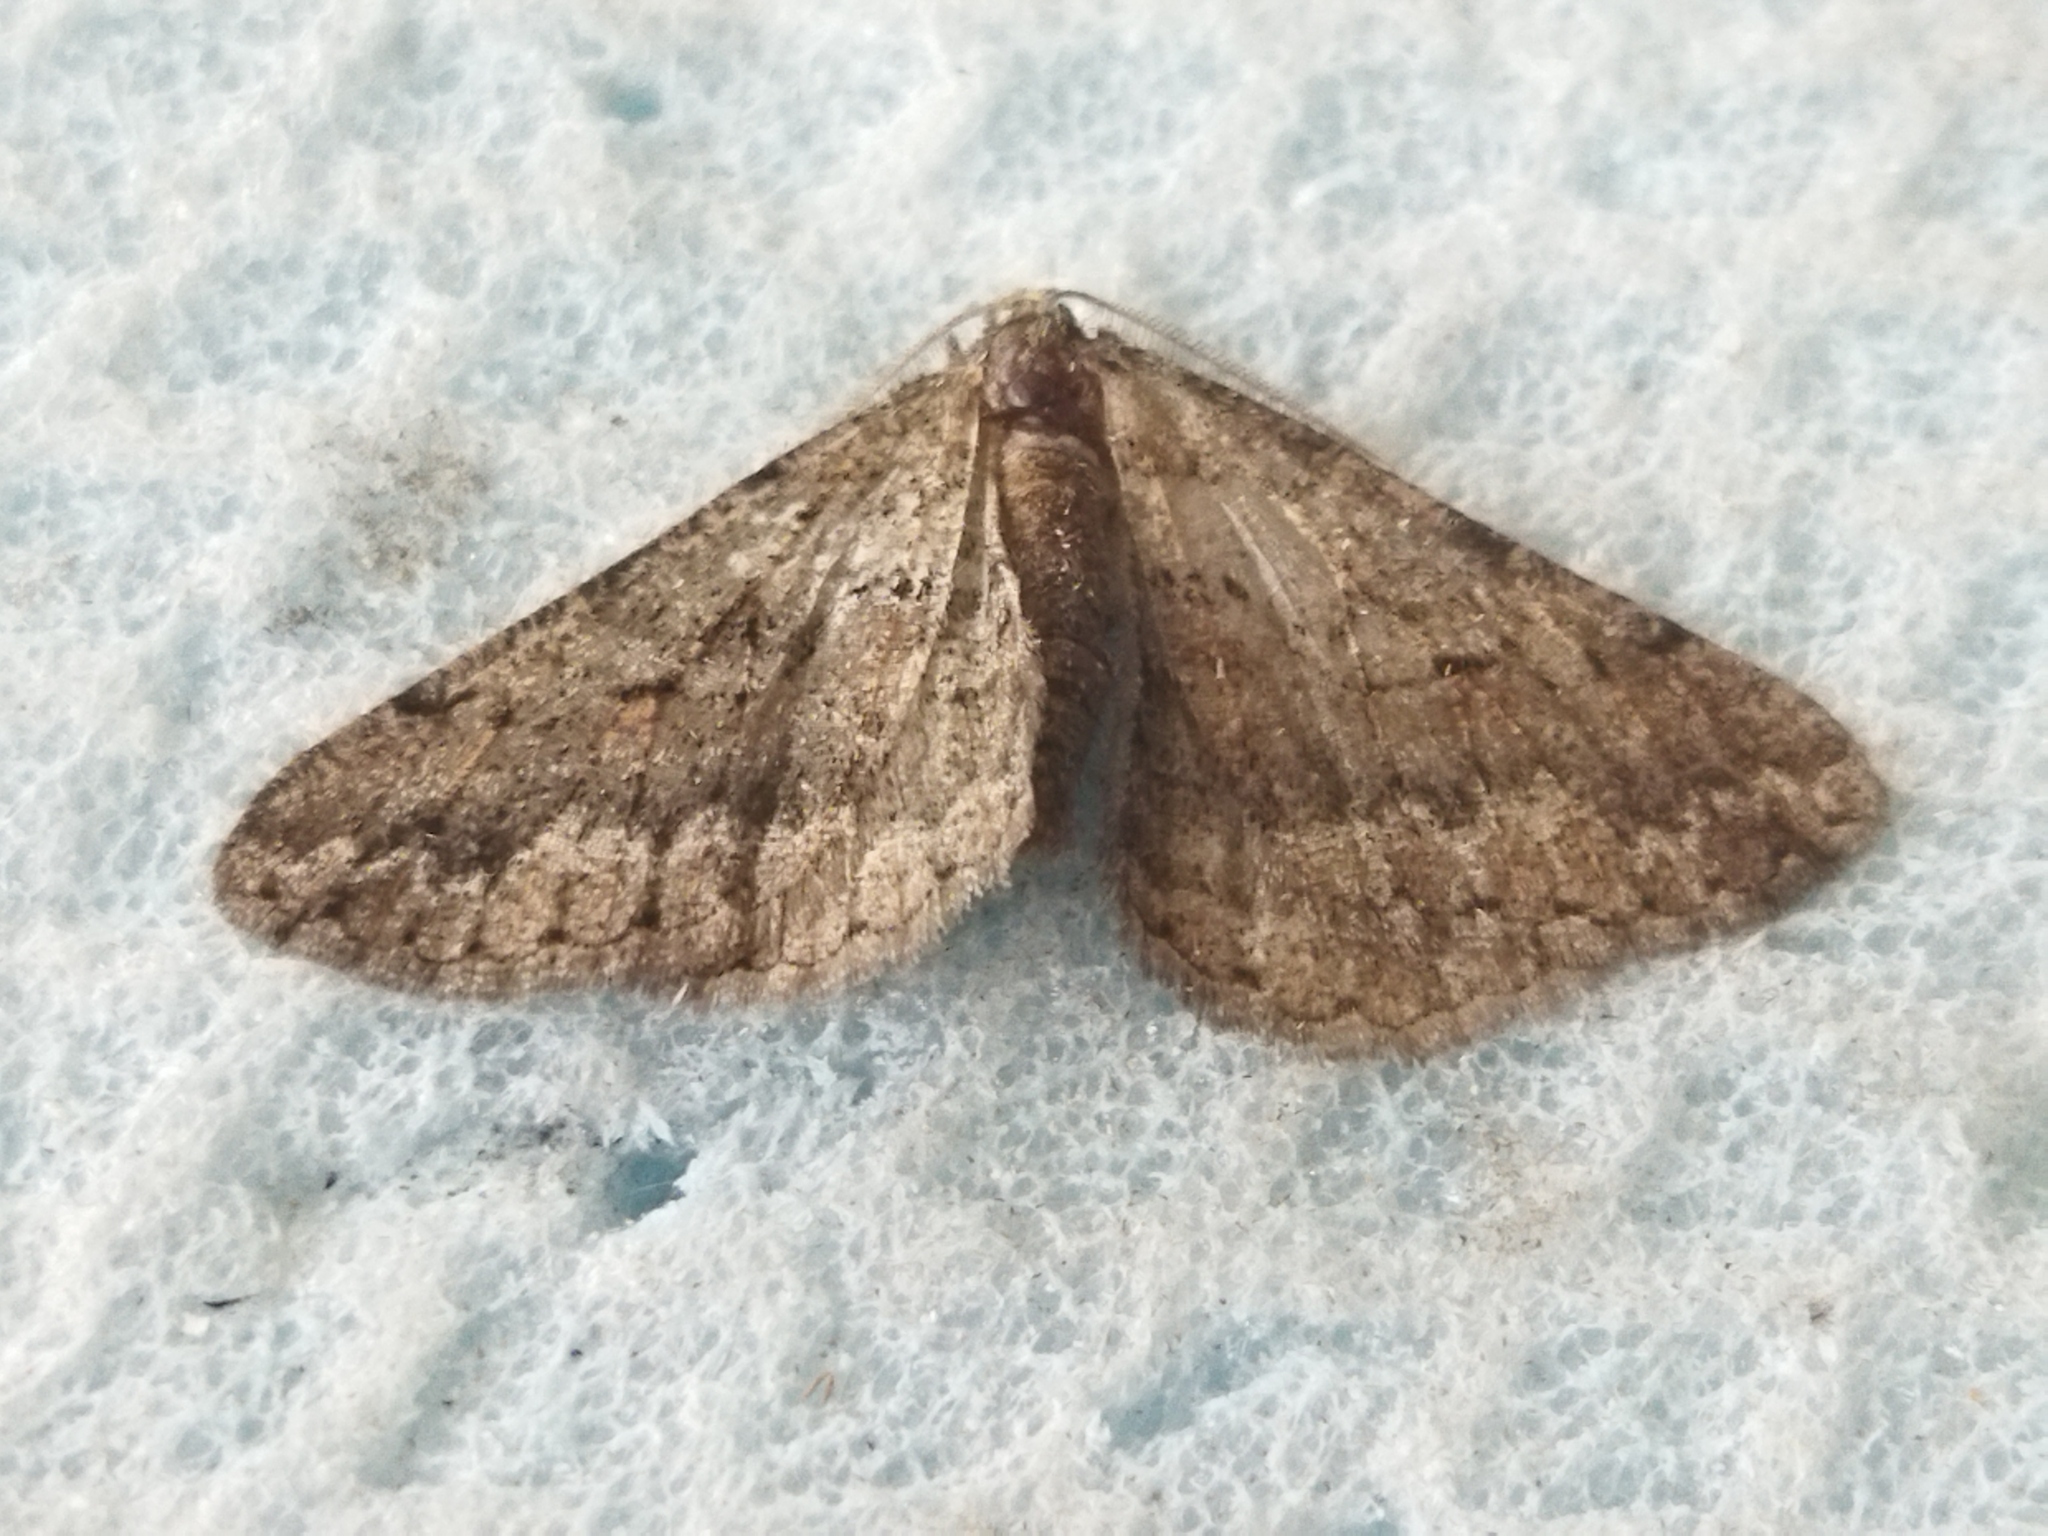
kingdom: Animalia
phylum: Arthropoda
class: Insecta
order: Lepidoptera
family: Geometridae
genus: Agriopis
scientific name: Agriopis bajaria
